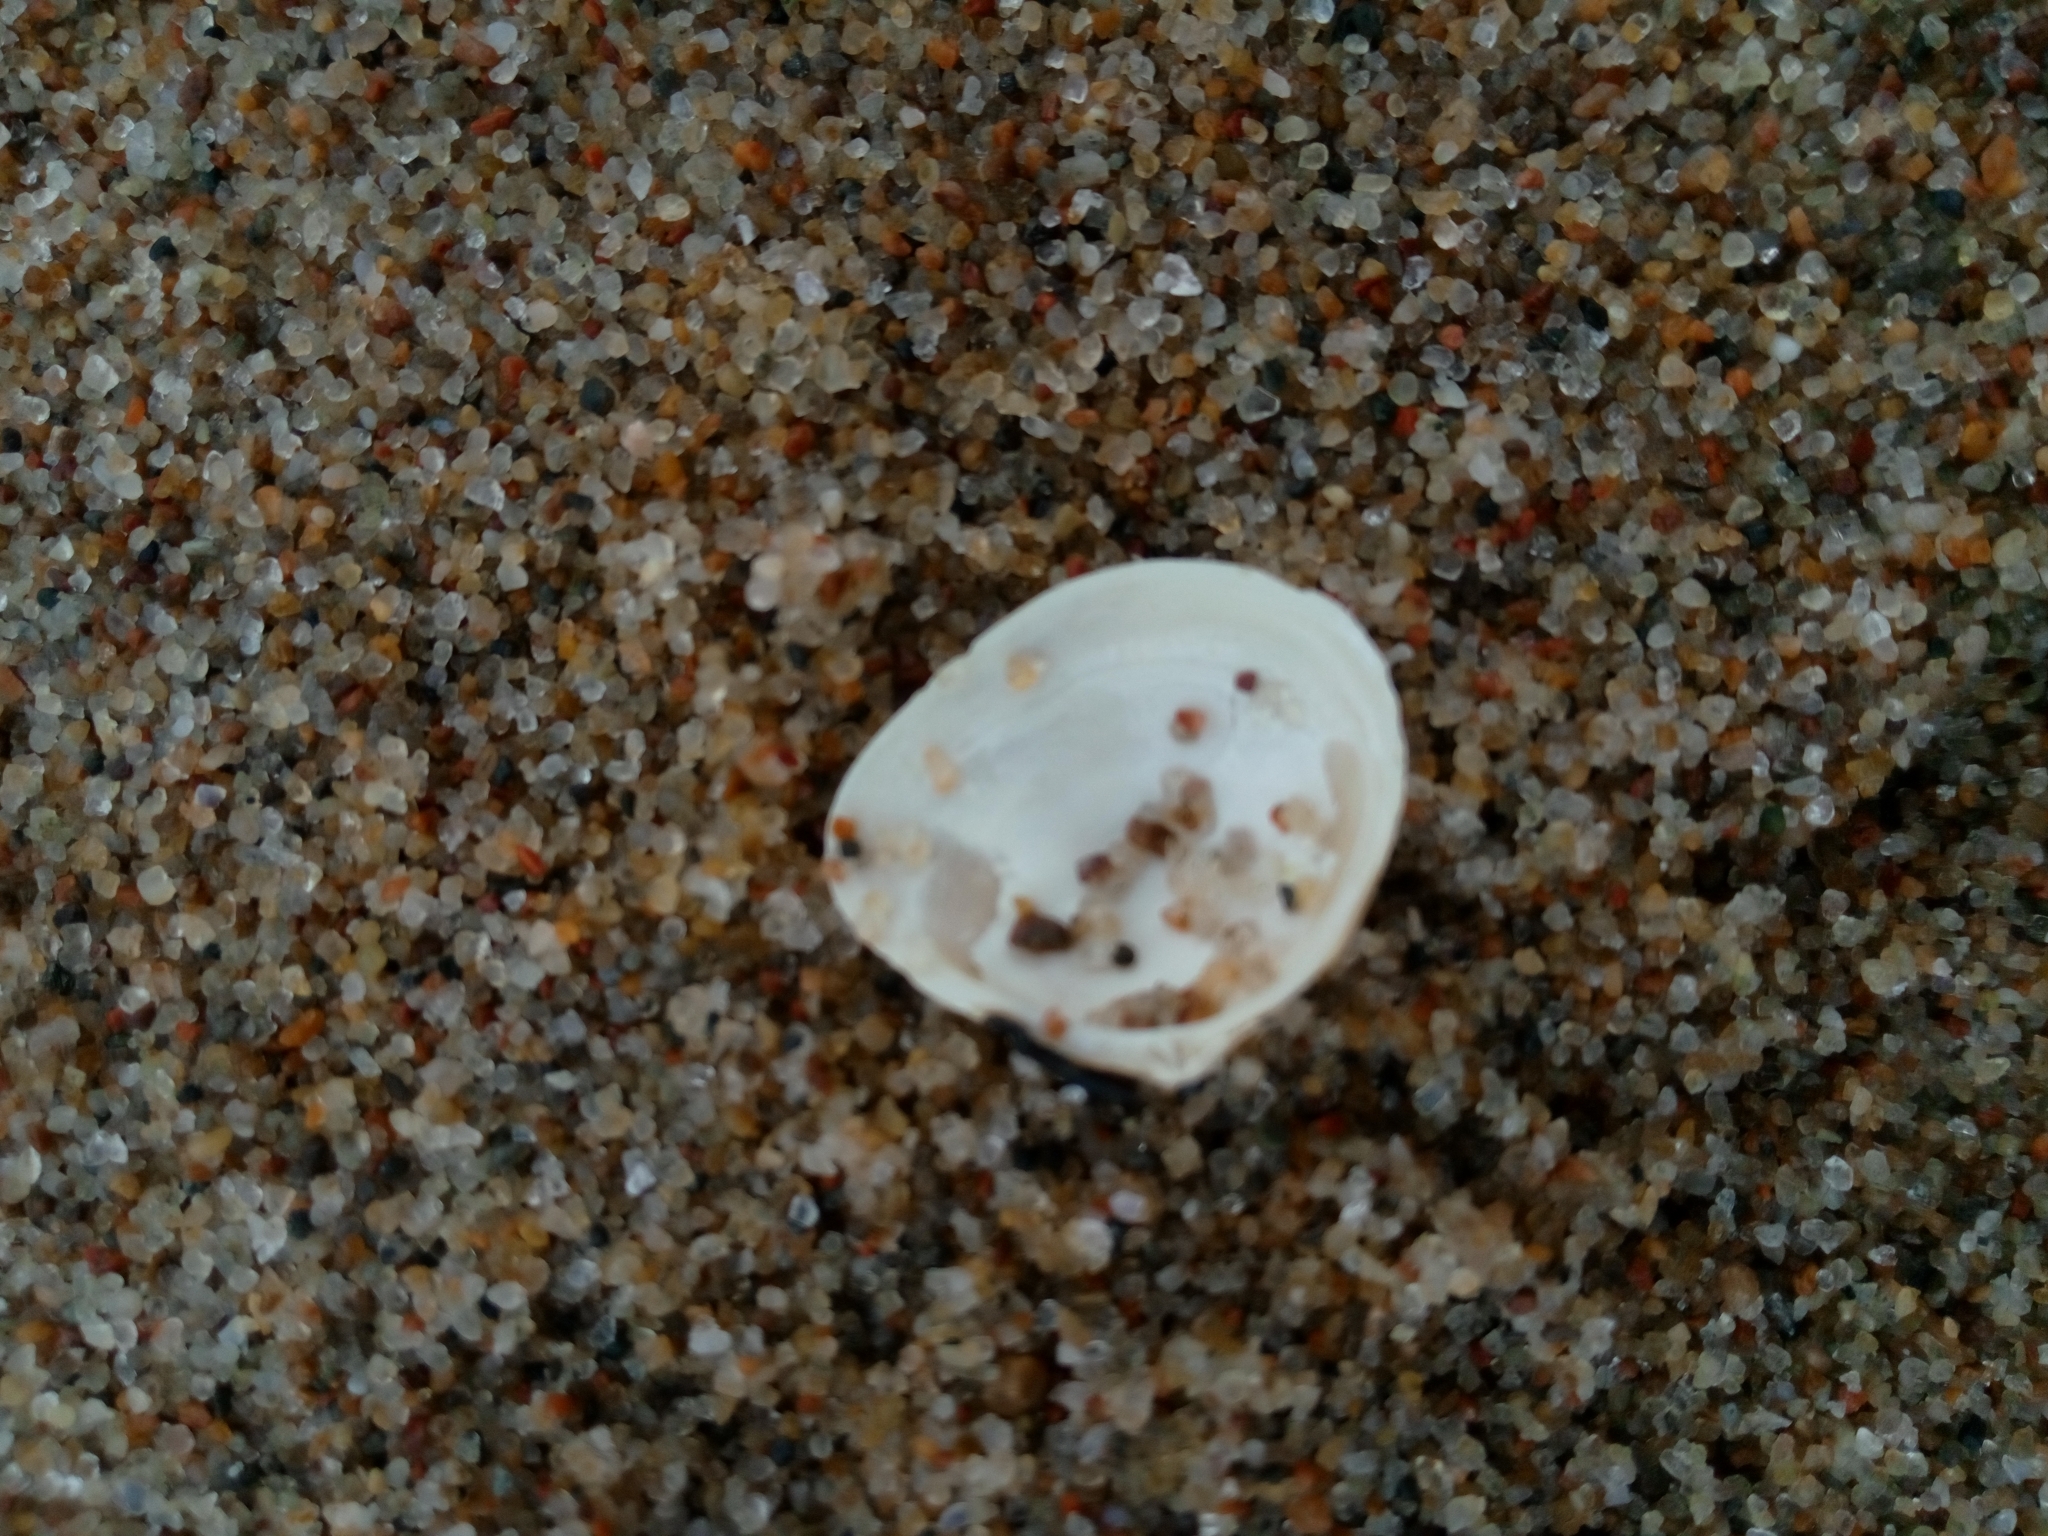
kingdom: Animalia
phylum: Mollusca
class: Bivalvia
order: Cardiida
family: Tellinidae
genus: Macoma
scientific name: Macoma balthica
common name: Baltic tellin
